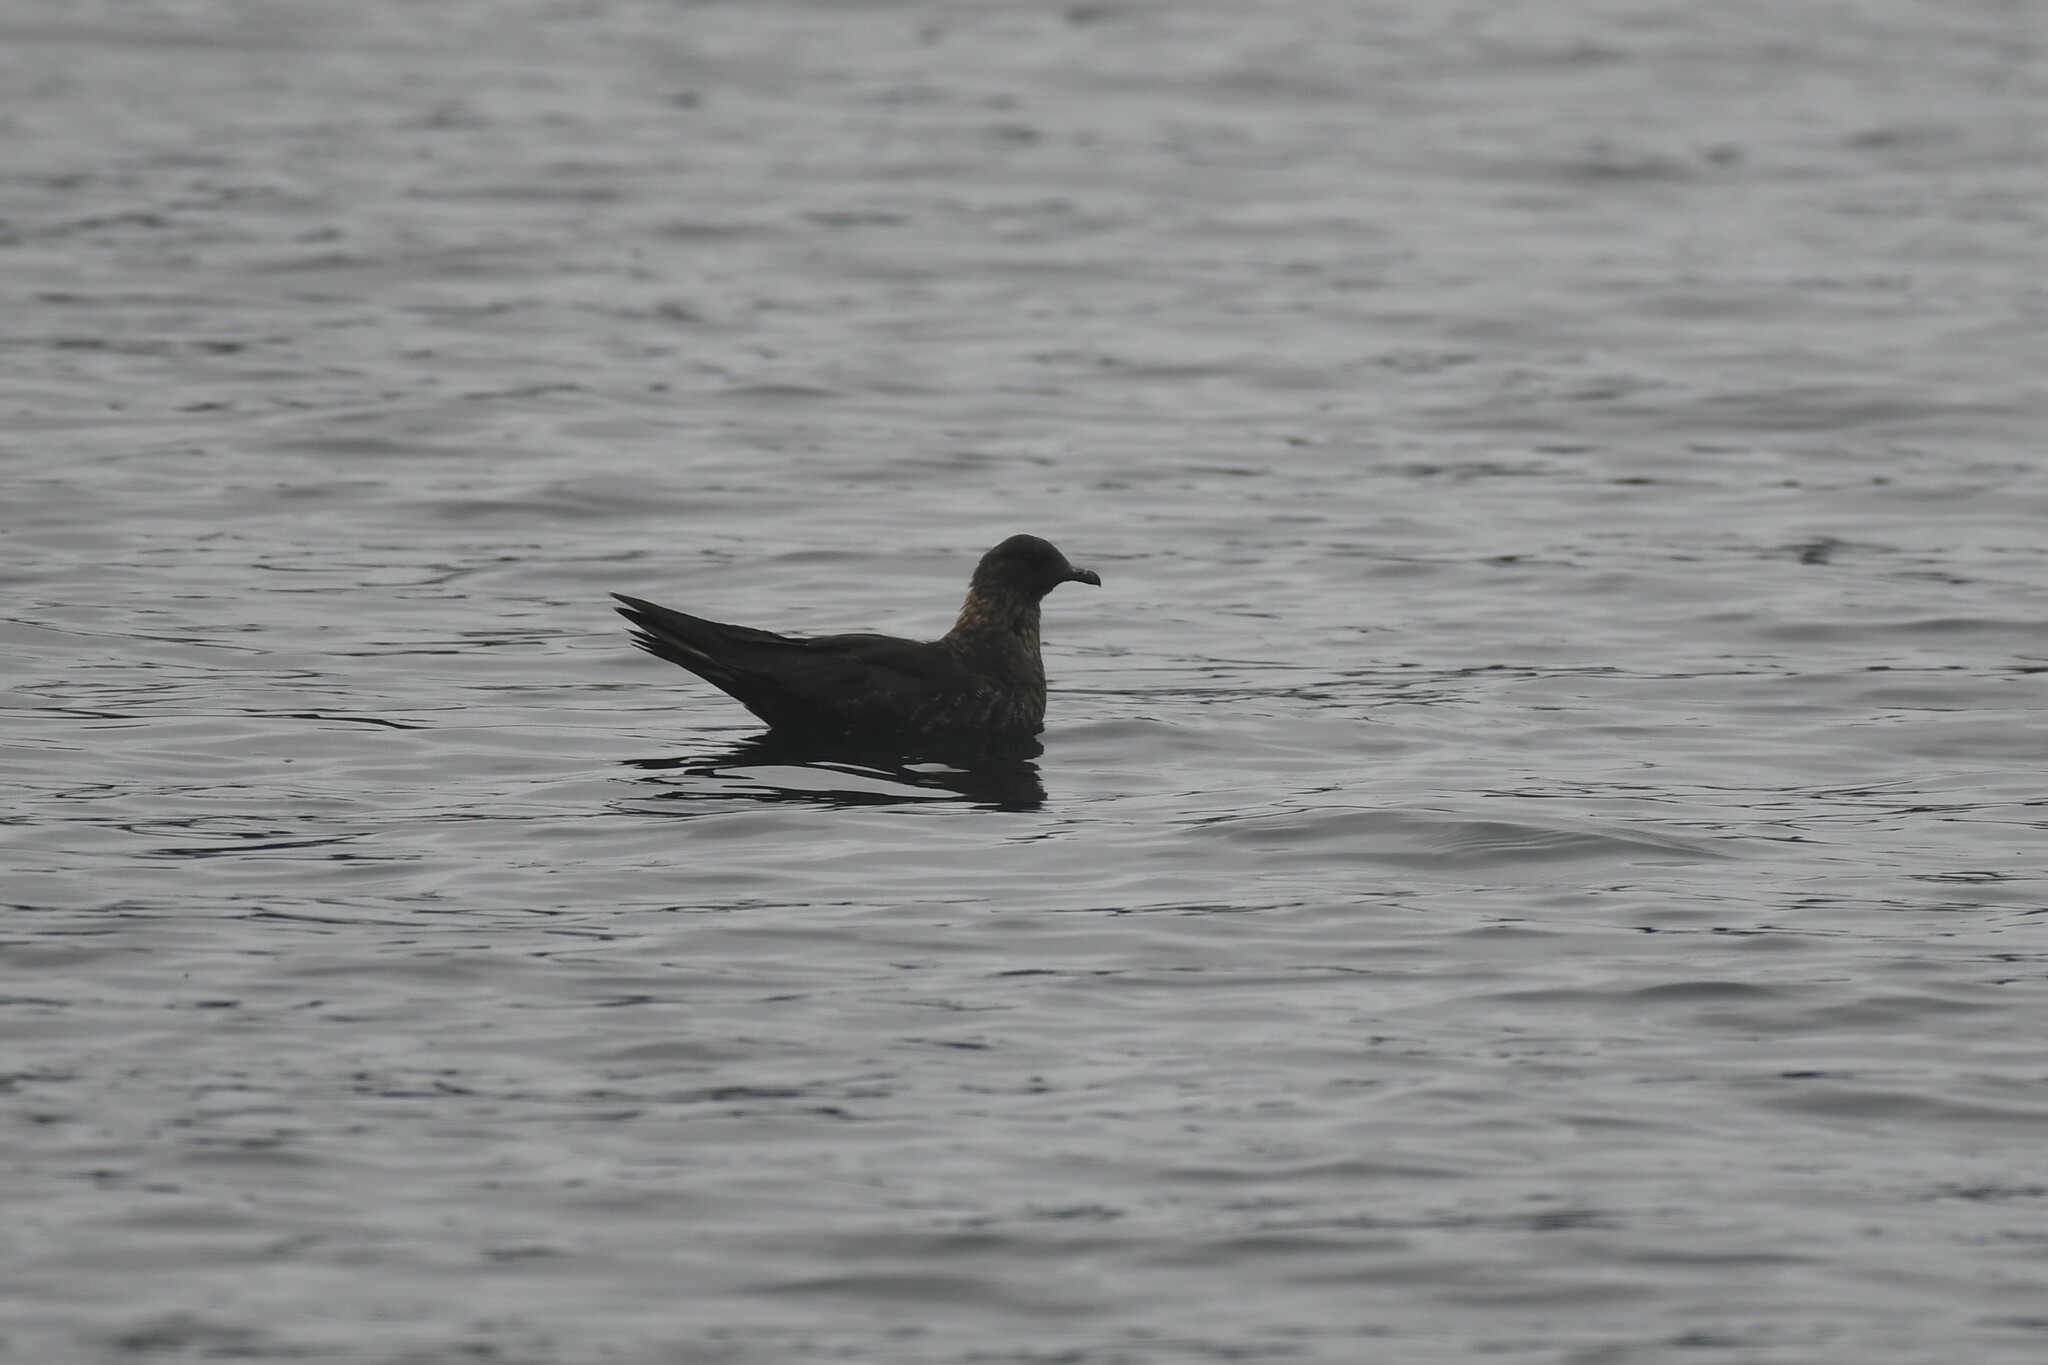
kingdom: Animalia
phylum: Chordata
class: Aves
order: Charadriiformes
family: Stercorariidae
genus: Stercorarius
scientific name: Stercorarius parasiticus
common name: Parasitic jaeger
